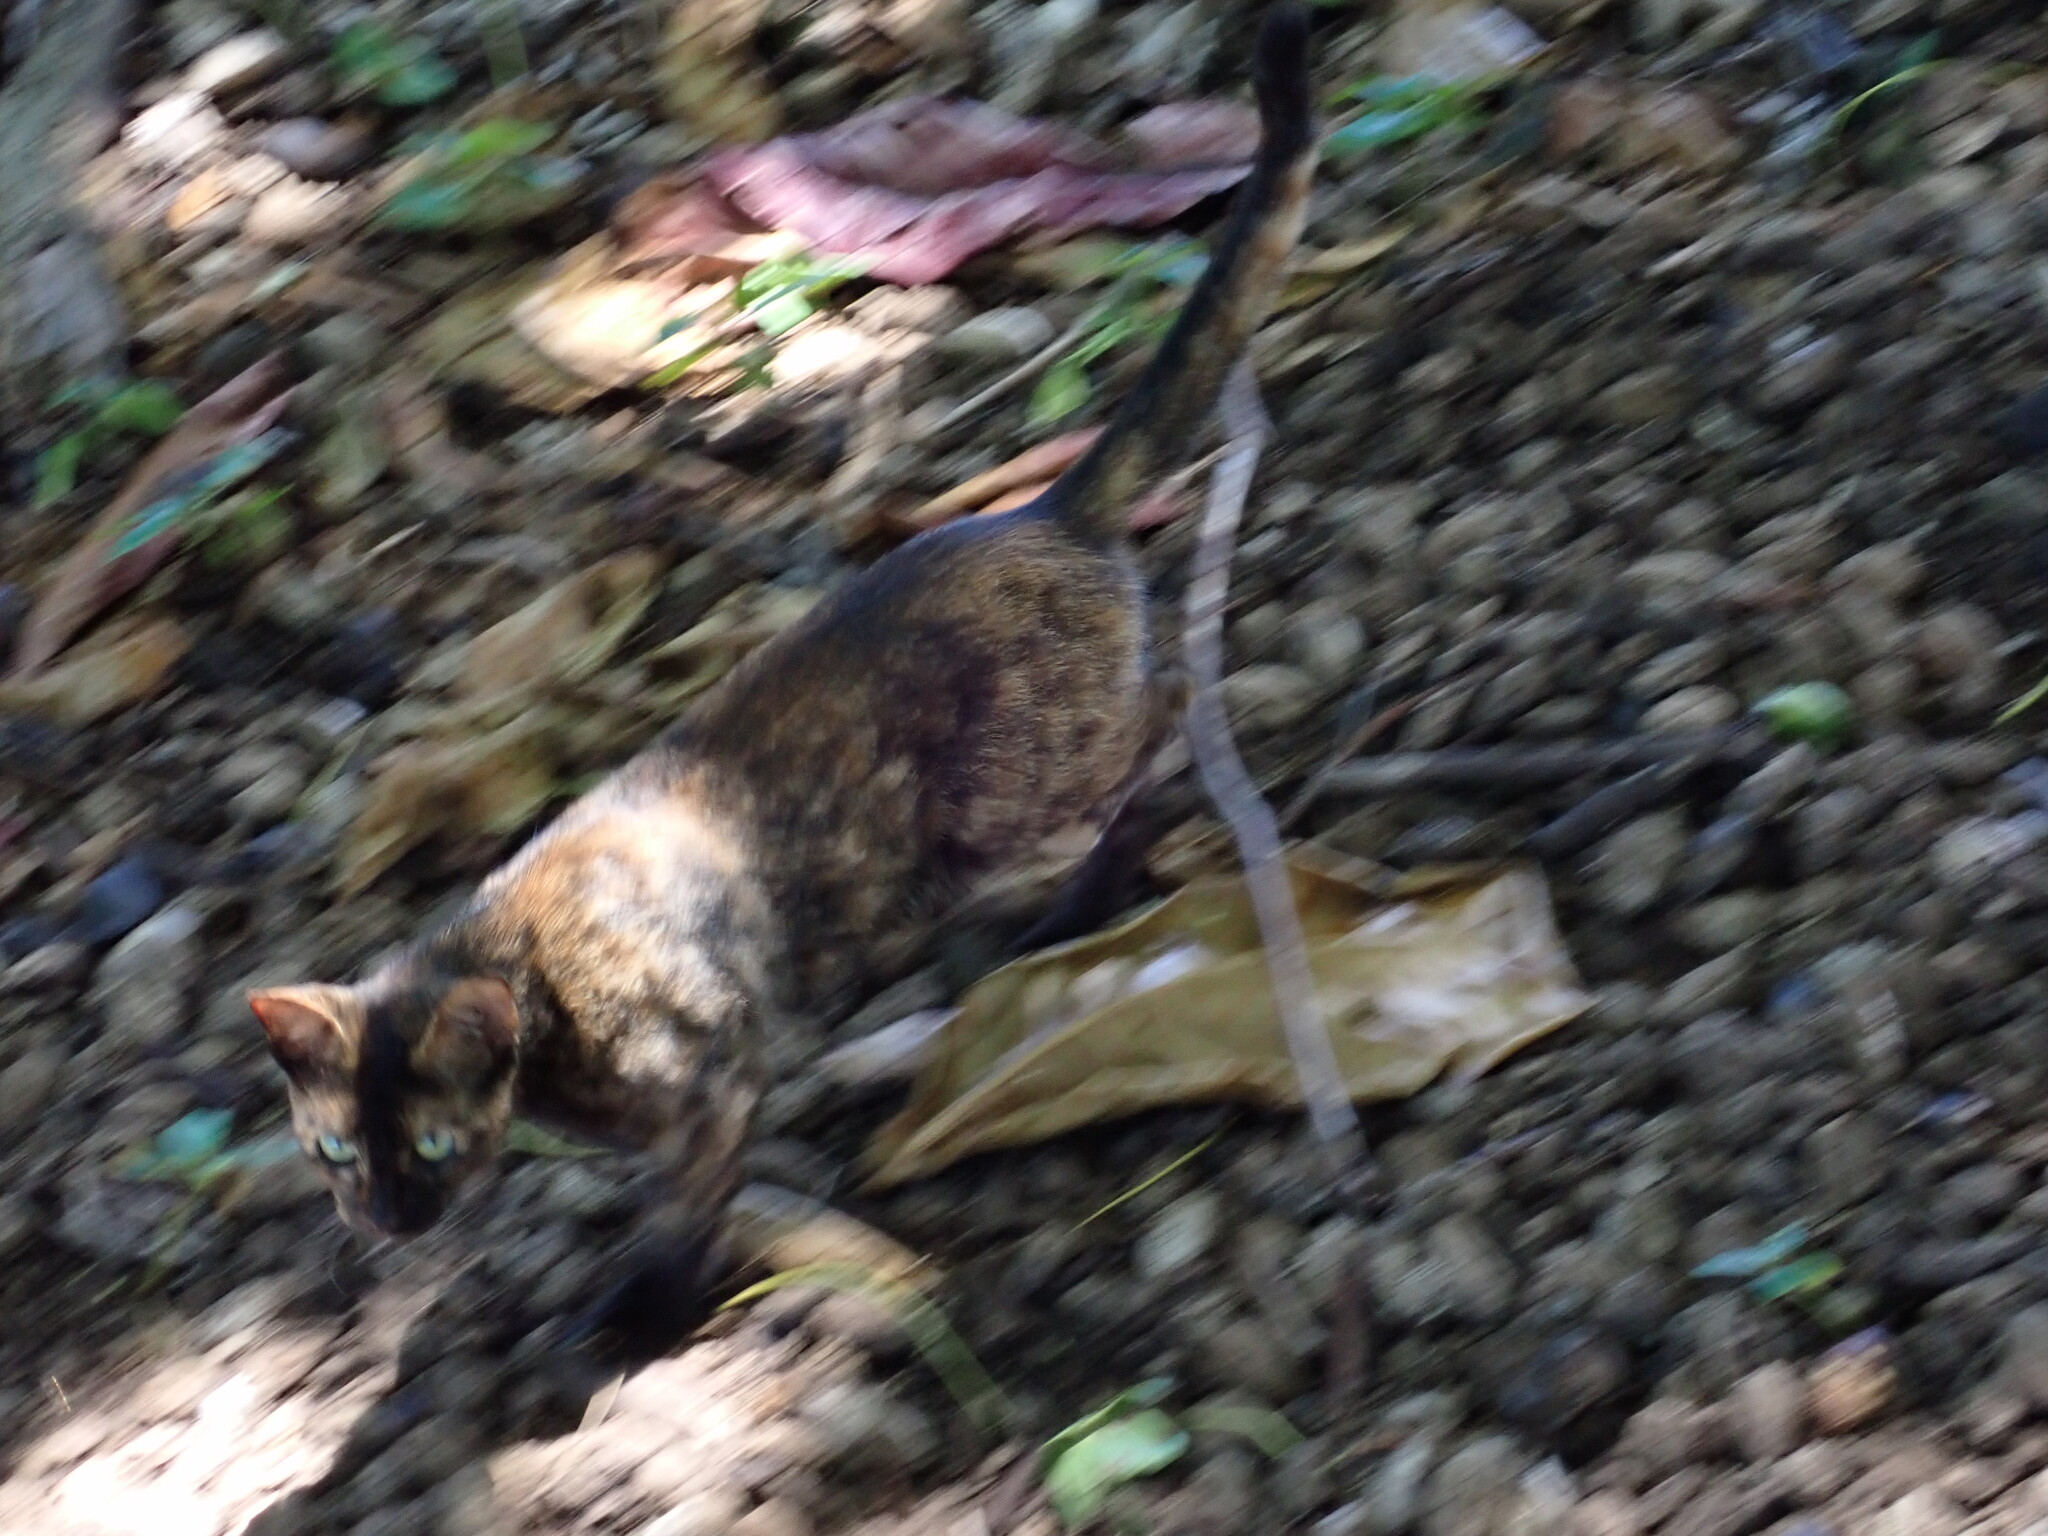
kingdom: Animalia
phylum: Chordata
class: Mammalia
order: Carnivora
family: Felidae
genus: Felis
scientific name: Felis catus
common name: Domestic cat
